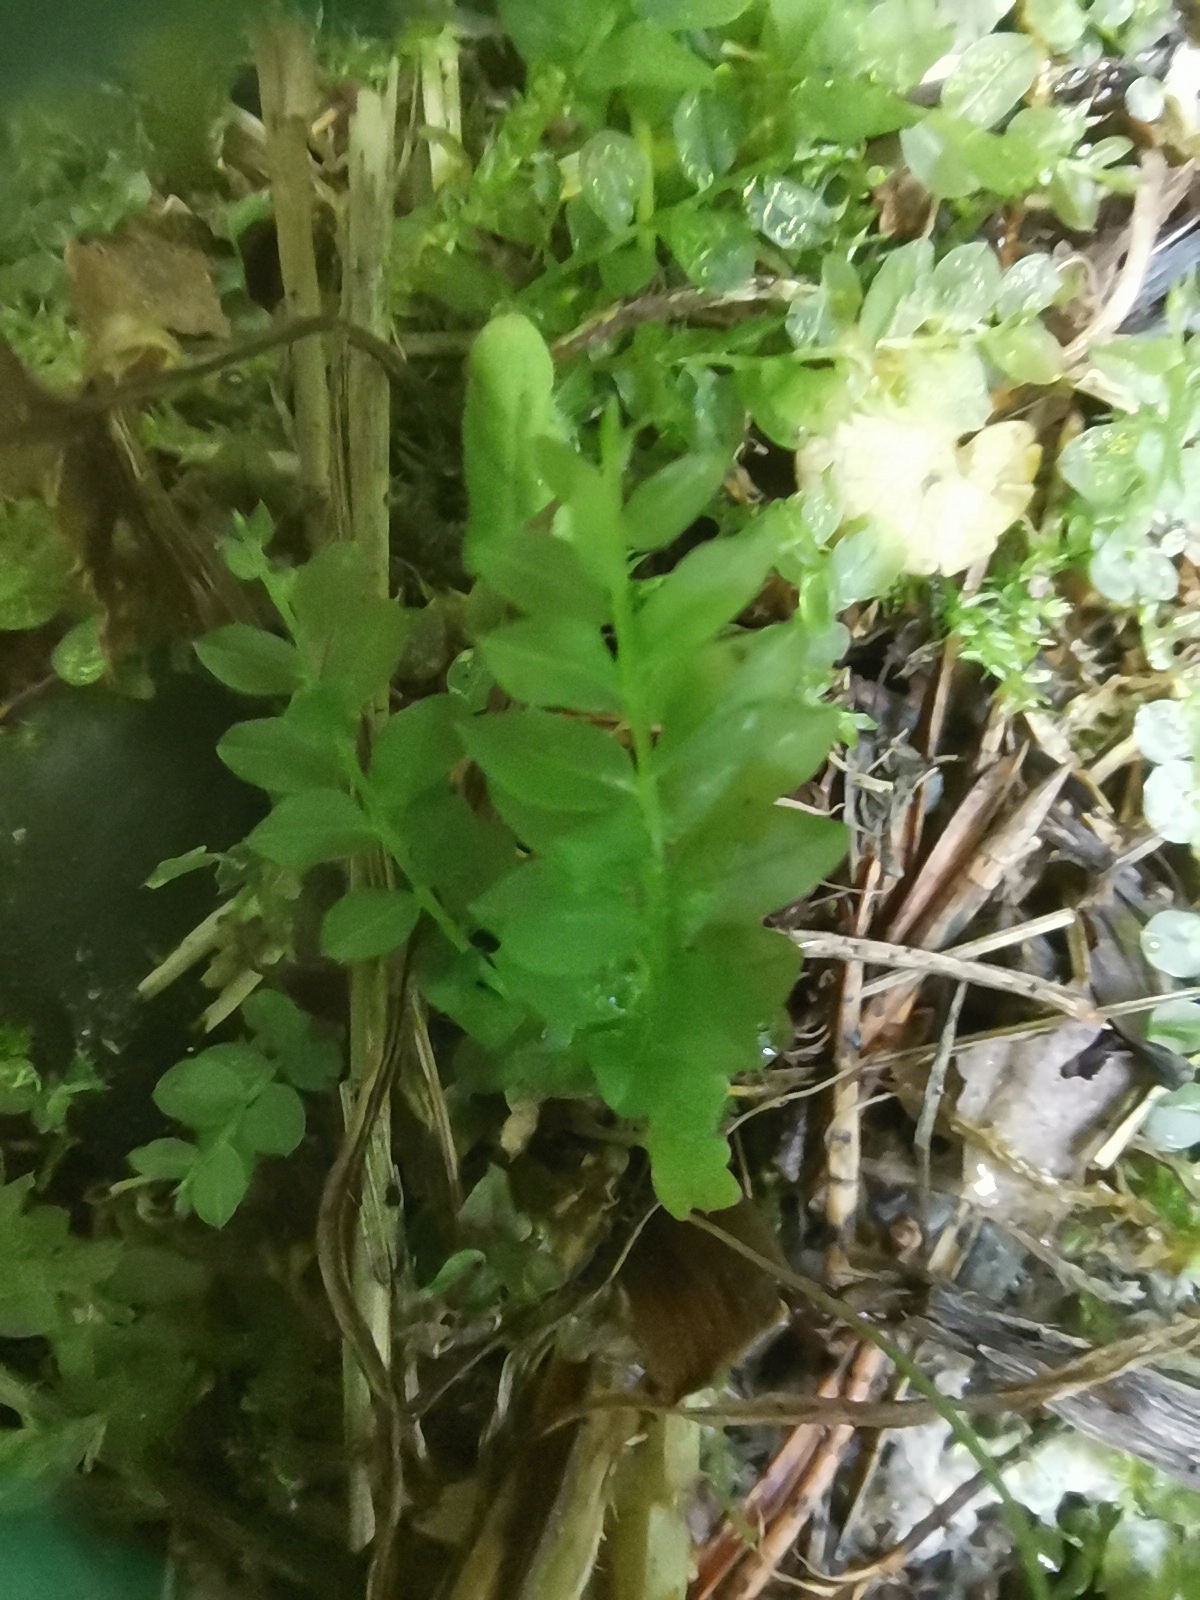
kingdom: Plantae
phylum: Bryophyta
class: Bryopsida
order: Bryales
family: Mniaceae
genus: Plagiomnium
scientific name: Plagiomnium affine
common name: Many-fruited thyme-moss
